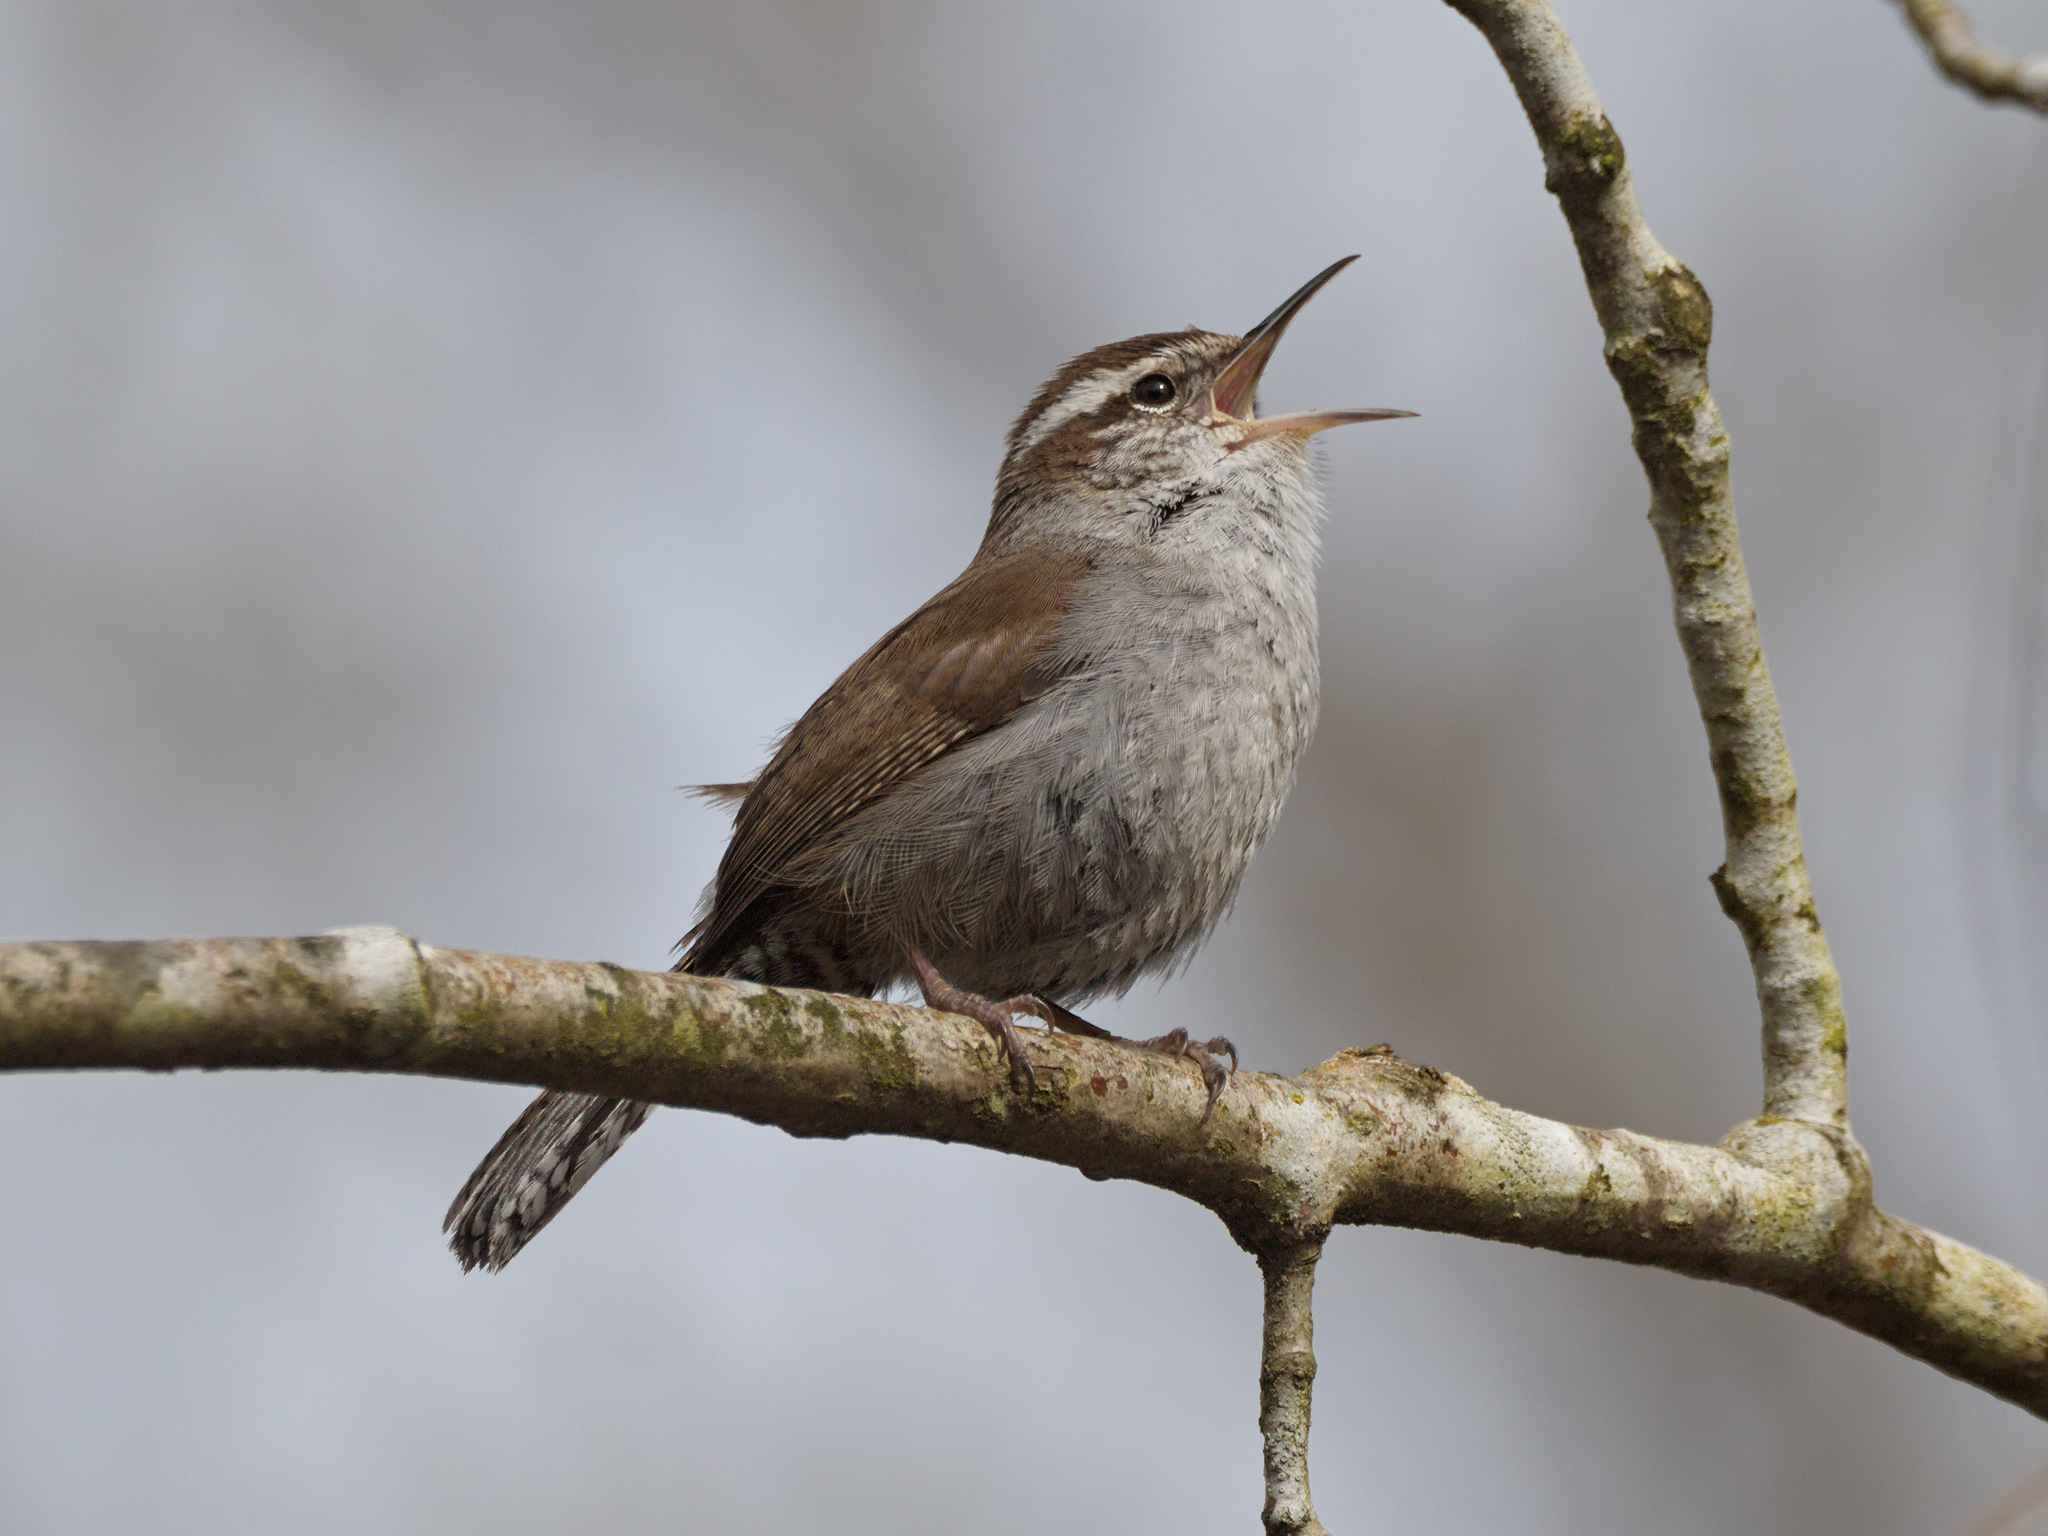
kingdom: Animalia
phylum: Chordata
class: Aves
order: Passeriformes
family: Troglodytidae
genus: Thryomanes
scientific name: Thryomanes bewickii
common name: Bewick's wren
